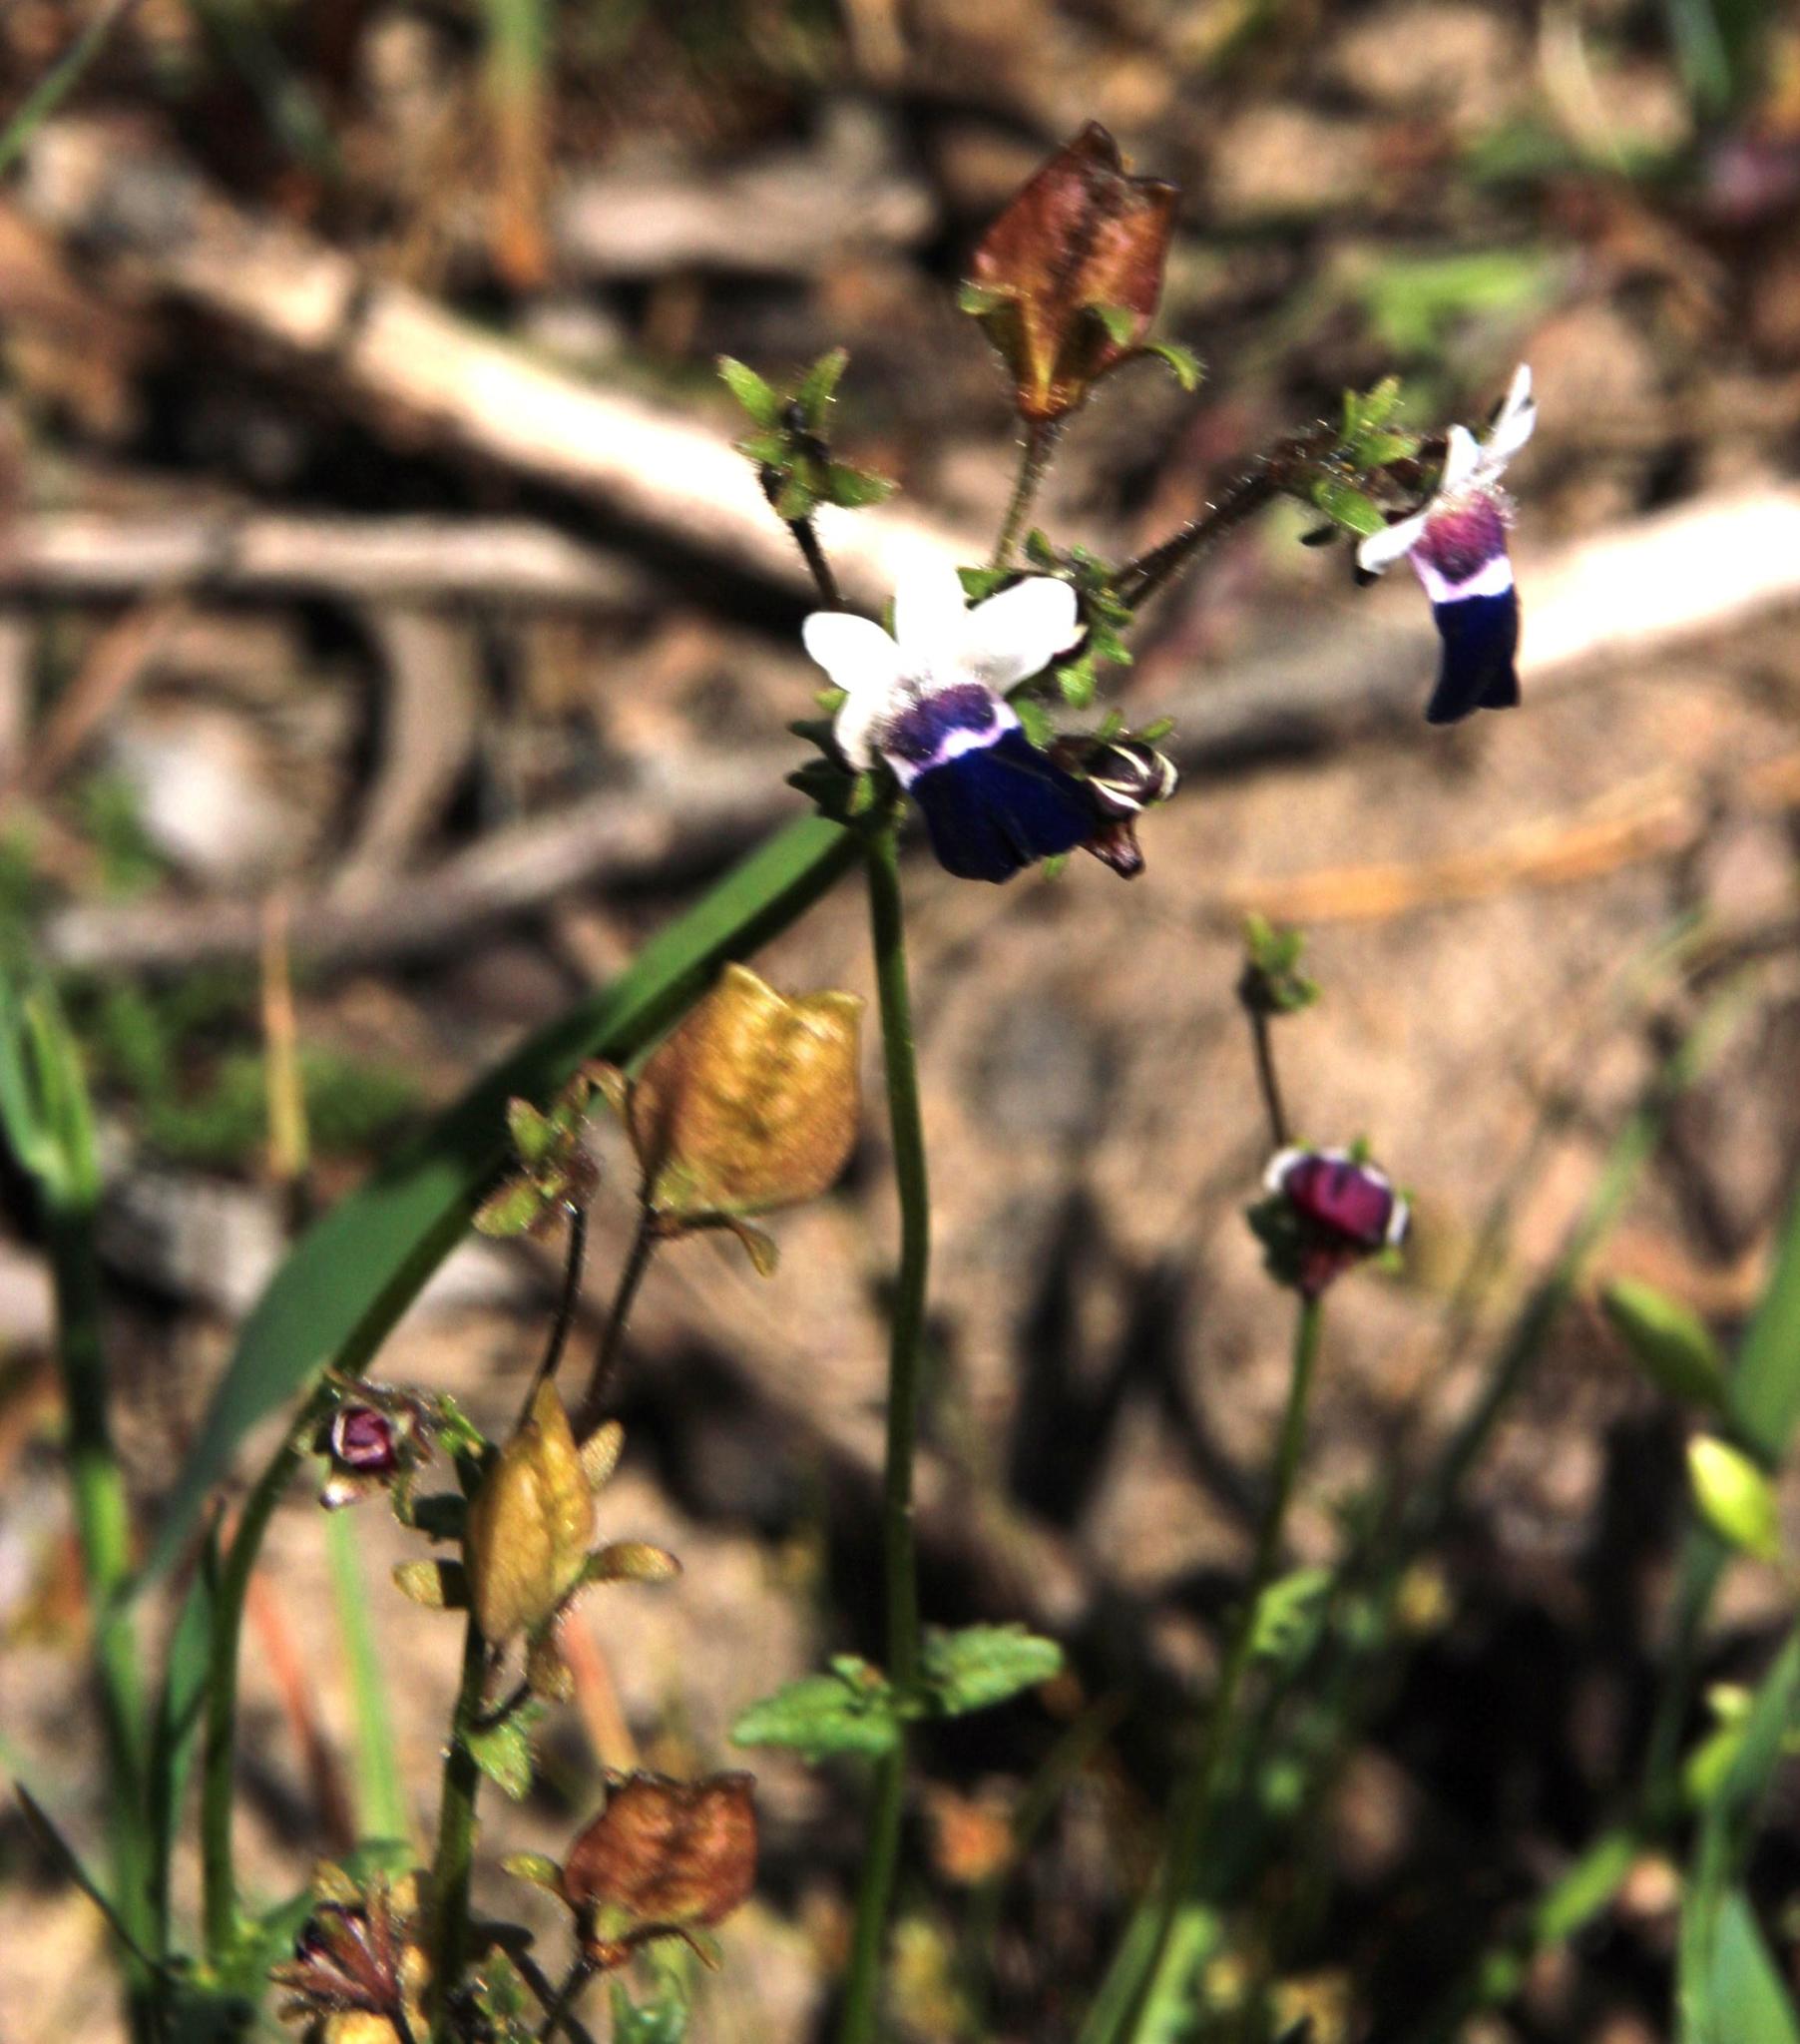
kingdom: Plantae
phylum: Tracheophyta
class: Magnoliopsida
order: Lamiales
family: Scrophulariaceae
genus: Nemesia
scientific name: Nemesia barbata
